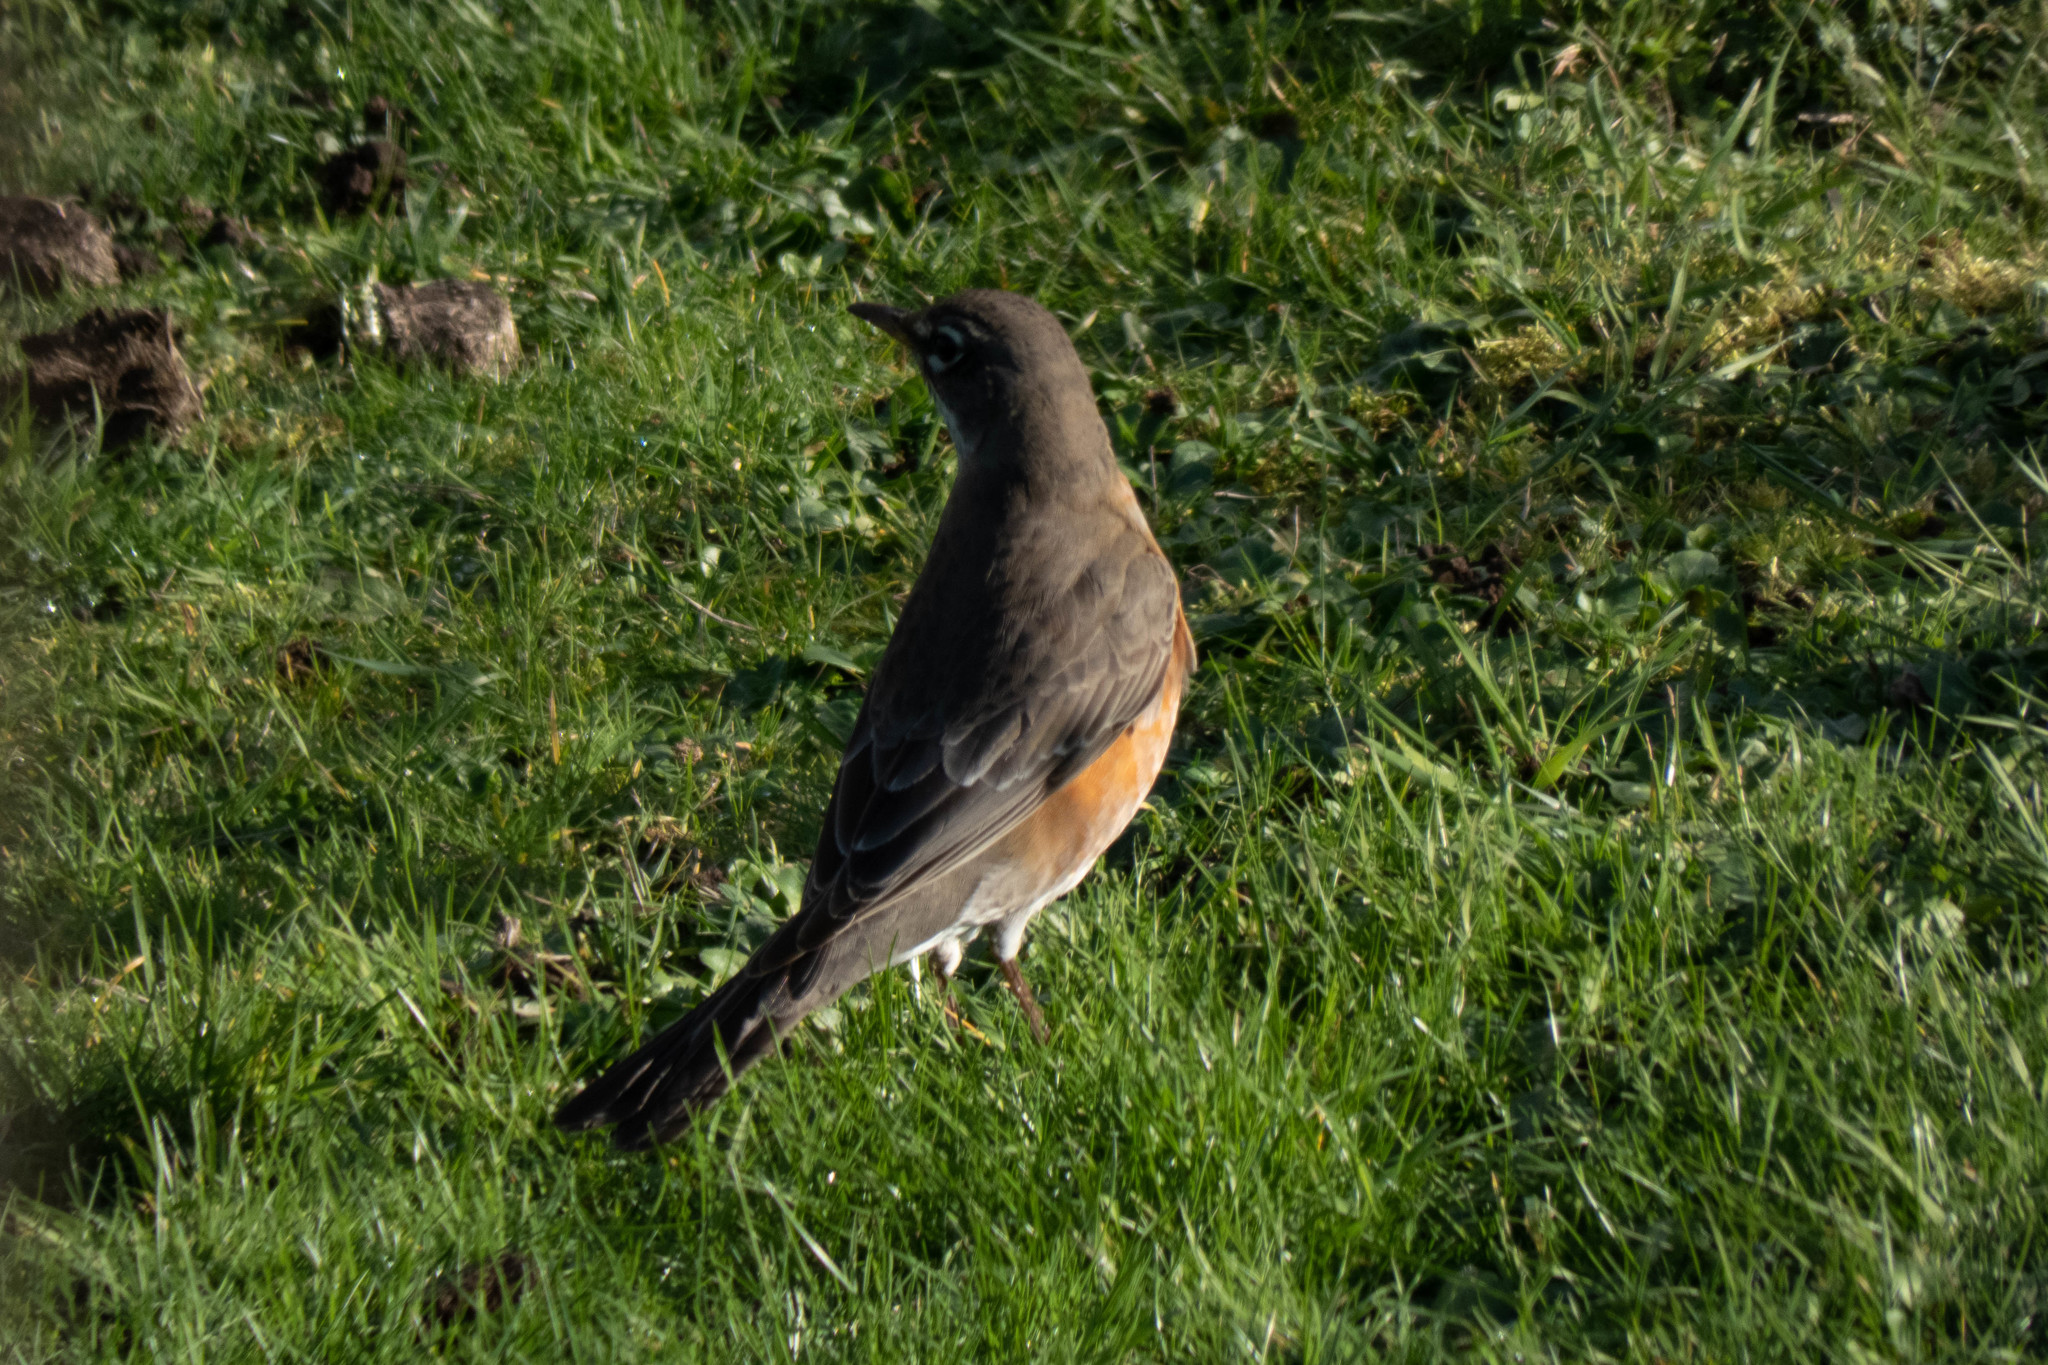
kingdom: Animalia
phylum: Chordata
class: Aves
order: Passeriformes
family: Turdidae
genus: Turdus
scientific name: Turdus migratorius
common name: American robin
